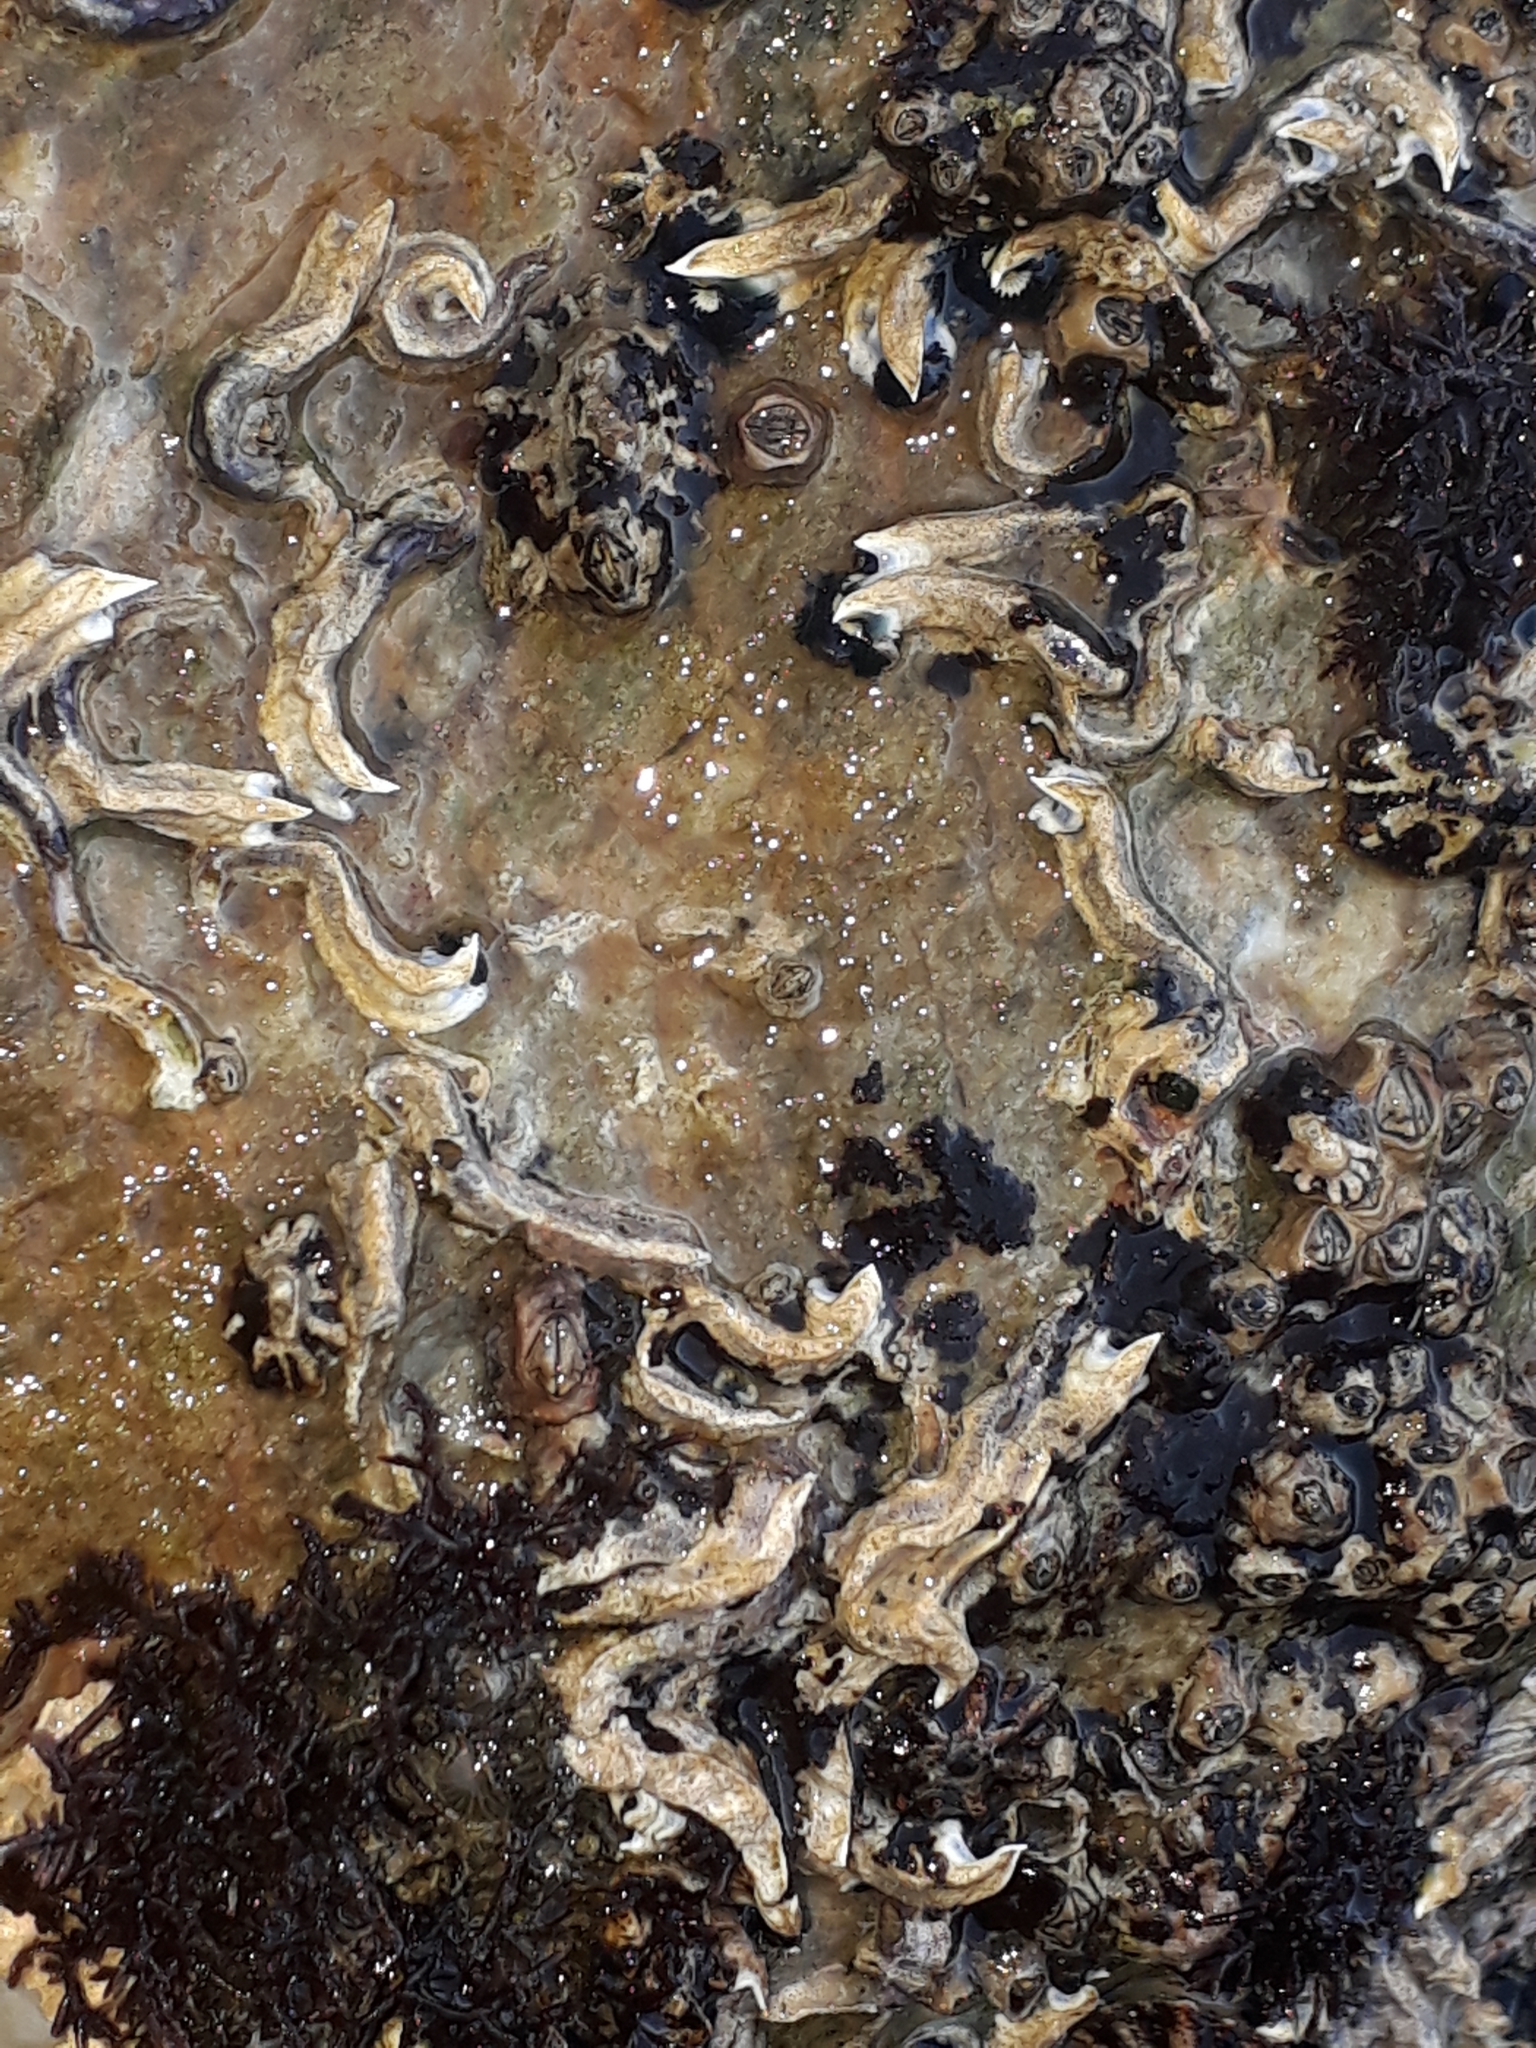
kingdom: Animalia
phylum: Annelida
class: Polychaeta
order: Sabellida
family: Serpulidae
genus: Spirobranchus
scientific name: Spirobranchus cariniferus
